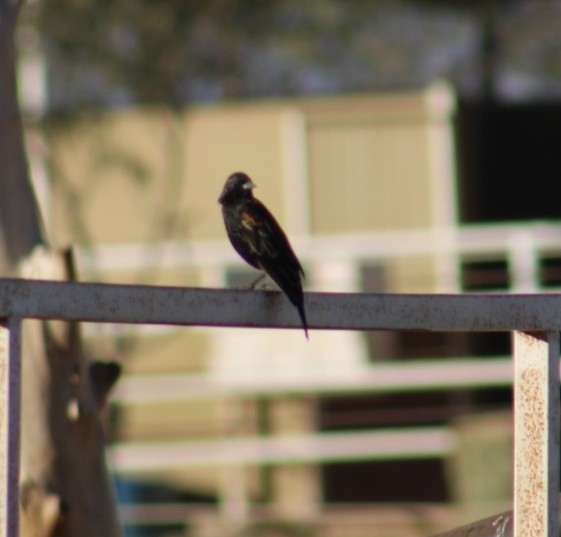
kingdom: Animalia
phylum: Chordata
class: Aves
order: Passeriformes
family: Icteridae
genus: Agelaius
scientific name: Agelaius phoeniceus
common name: Red-winged blackbird
